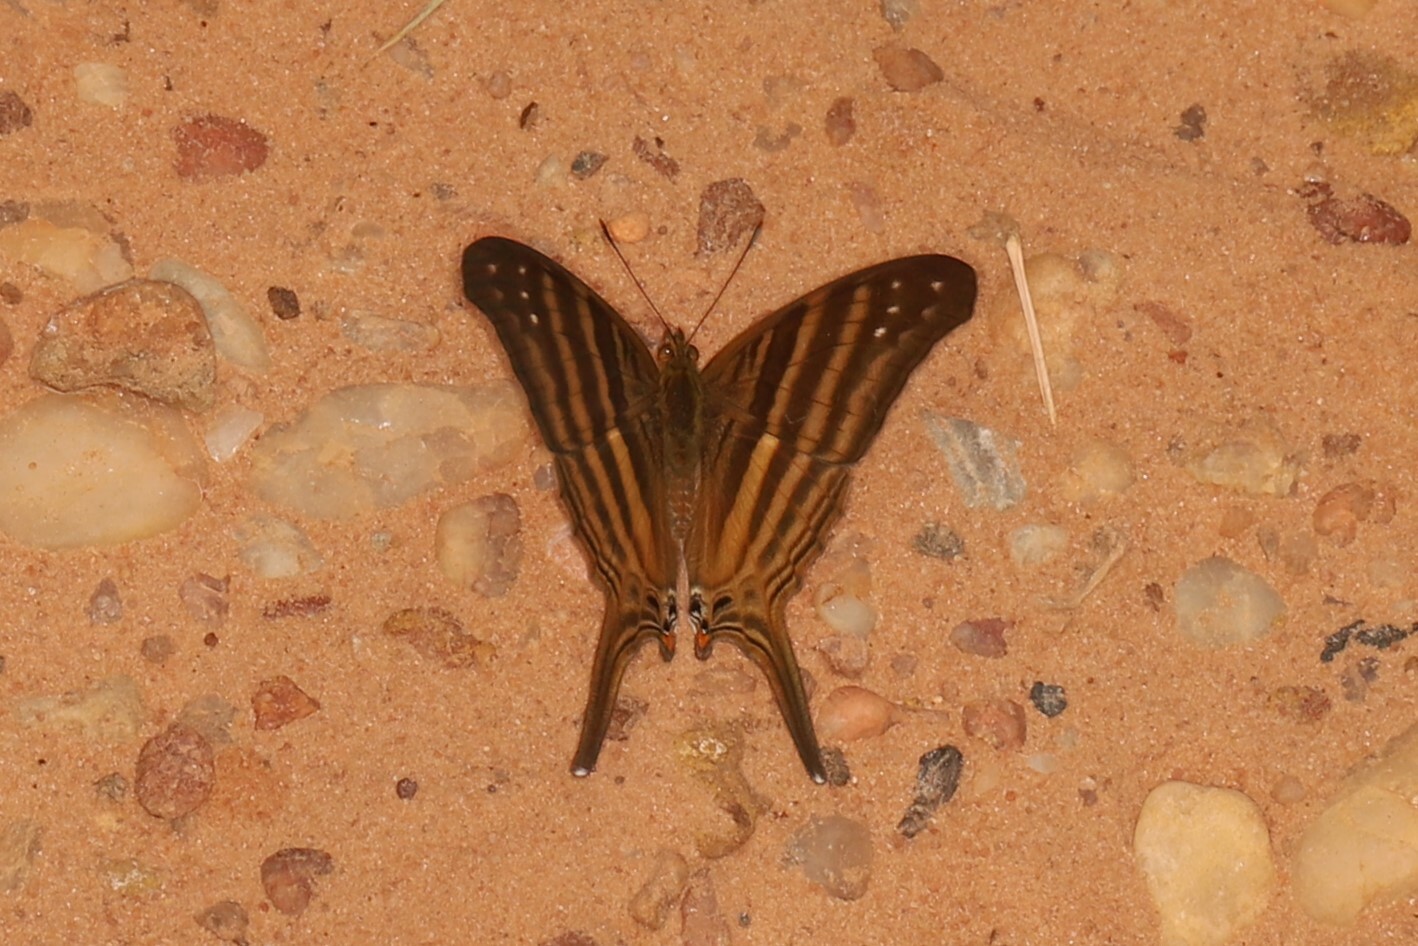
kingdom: Animalia
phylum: Arthropoda
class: Insecta
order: Lepidoptera
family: Nymphalidae
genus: Marpesia
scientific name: Marpesia chiron
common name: Many-banded daggerwing
